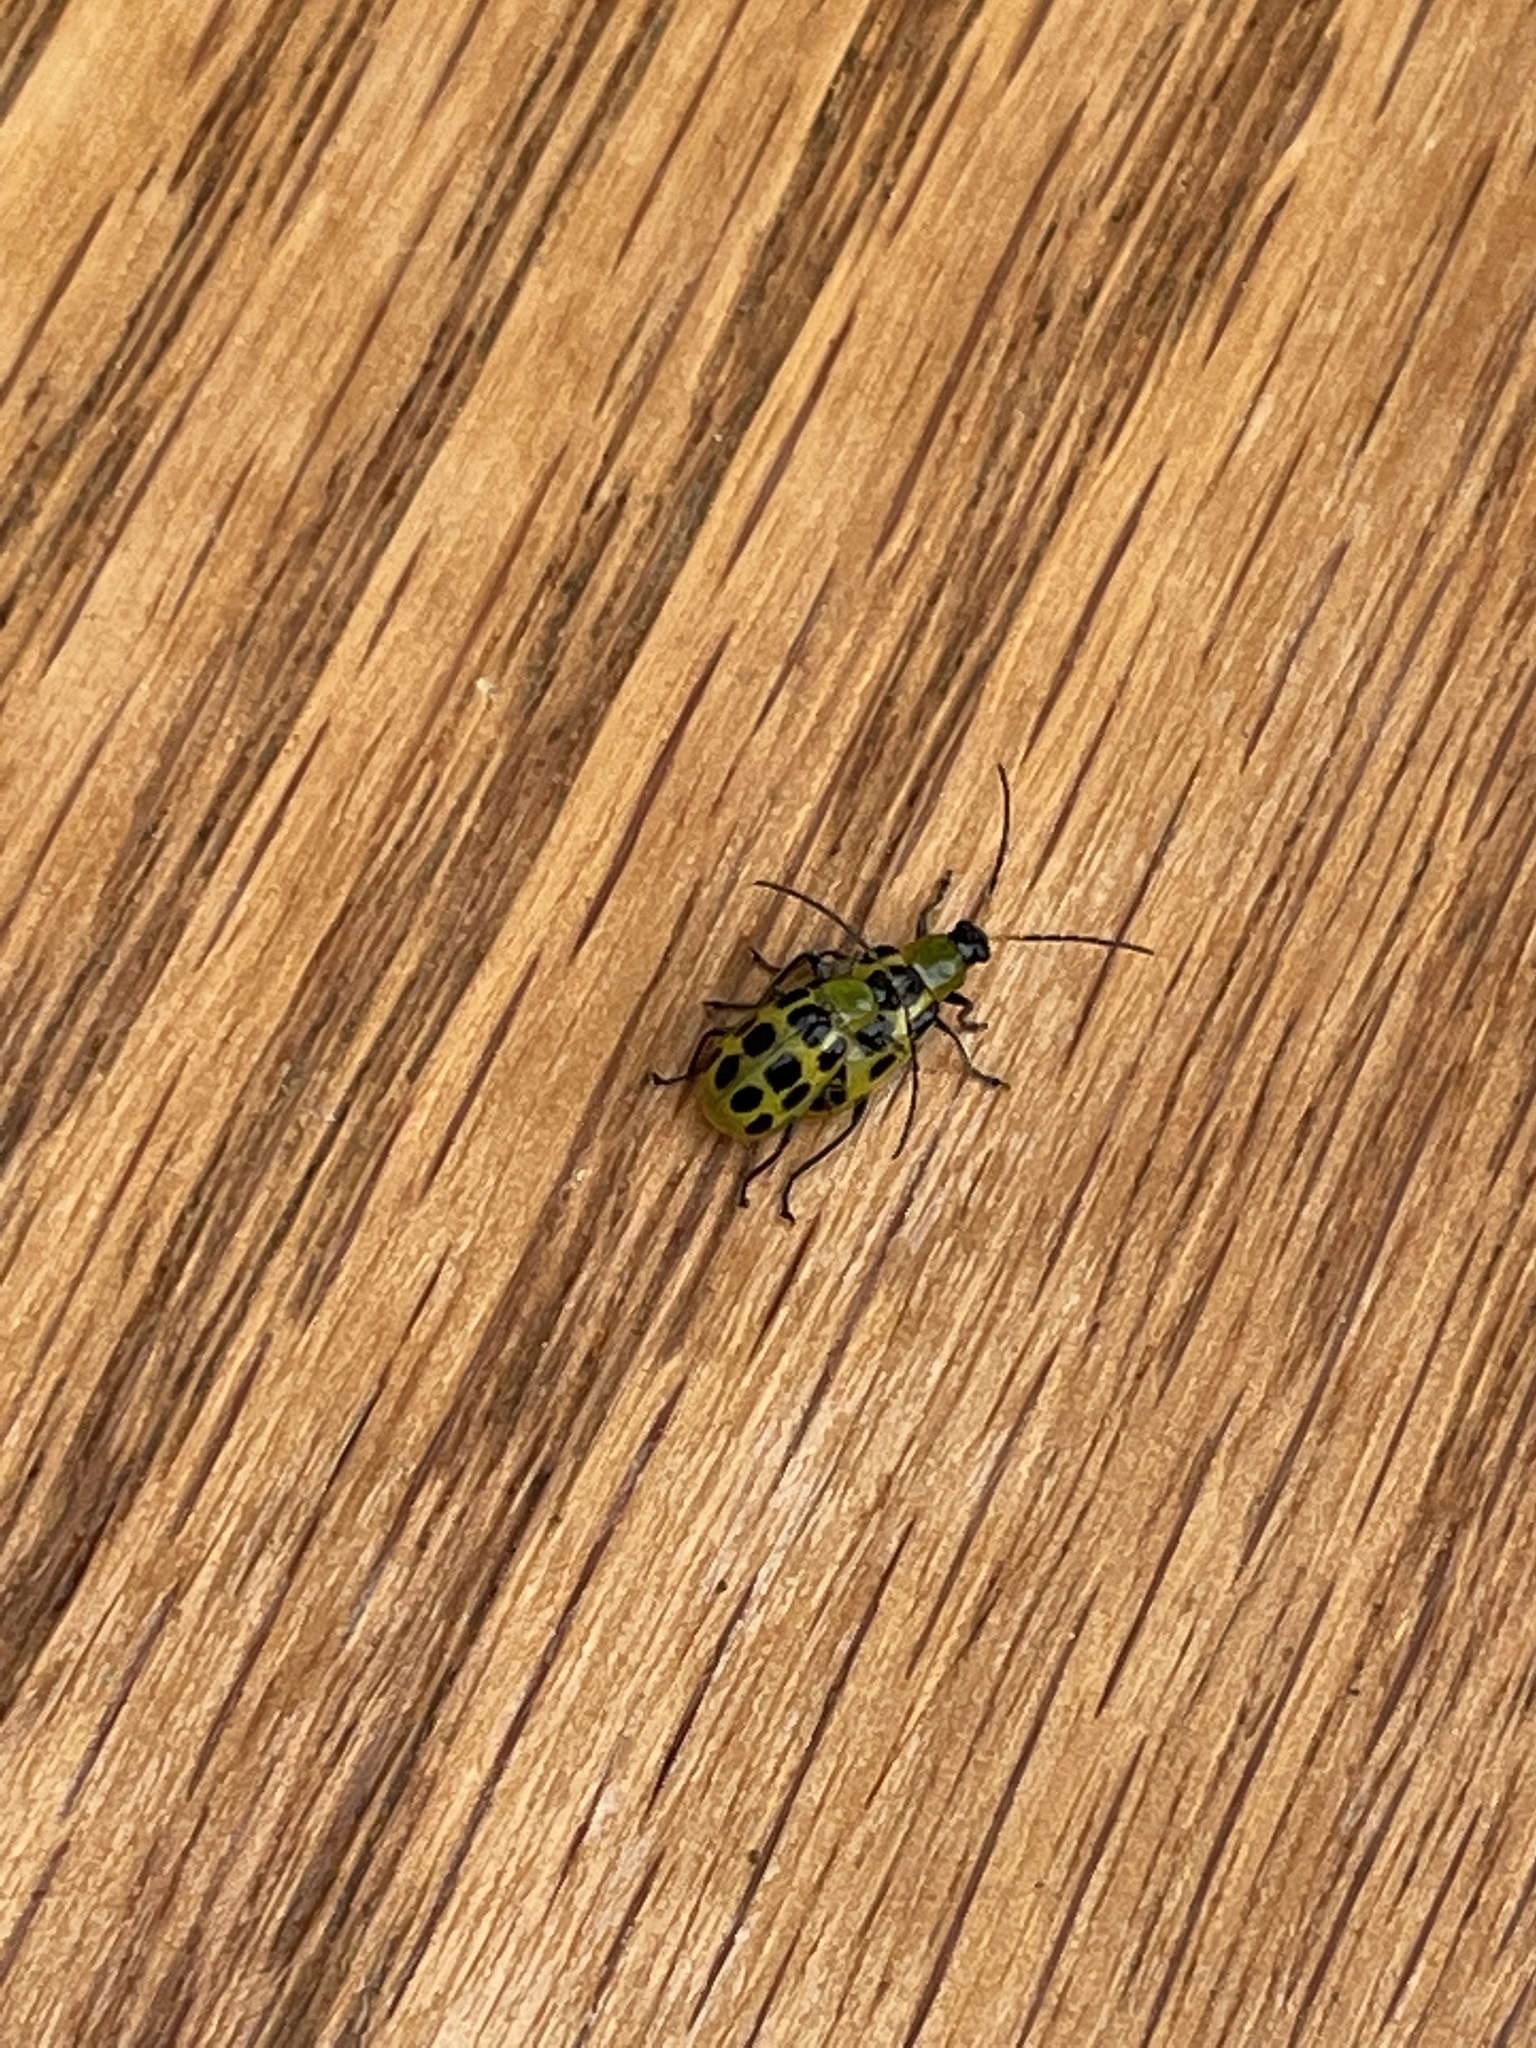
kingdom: Animalia
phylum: Arthropoda
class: Insecta
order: Coleoptera
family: Chrysomelidae
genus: Diabrotica
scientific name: Diabrotica undecimpunctata
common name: Spotted cucumber beetle
